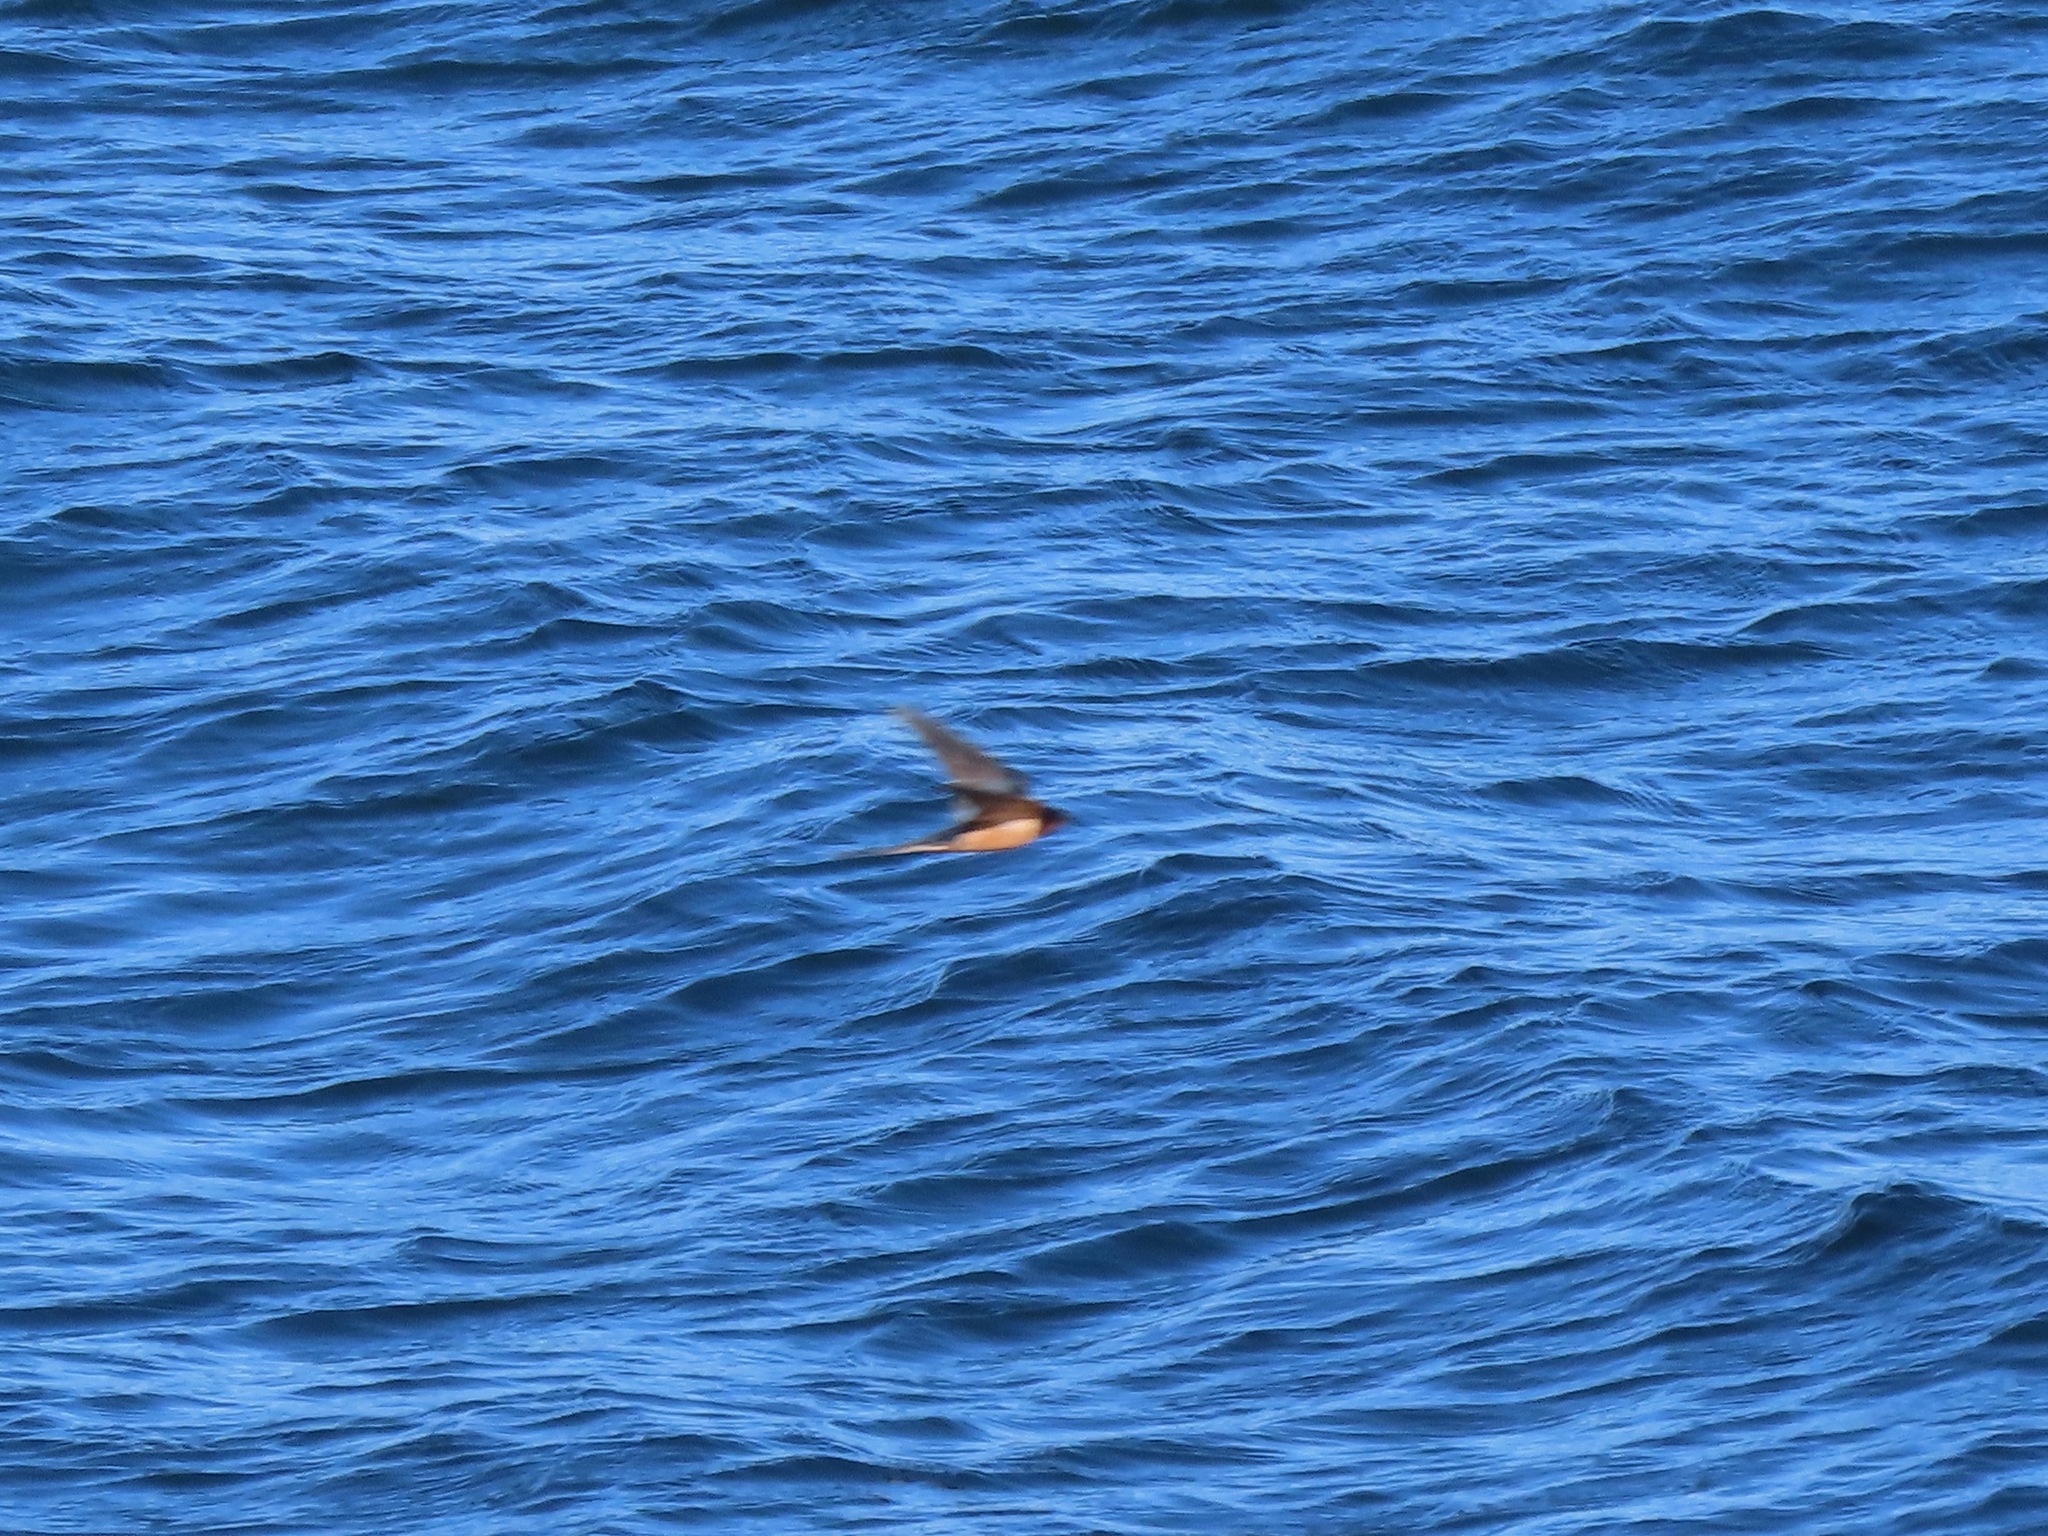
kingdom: Animalia
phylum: Chordata
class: Aves
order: Passeriformes
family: Hirundinidae
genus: Hirundo
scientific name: Hirundo rustica
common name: Barn swallow
